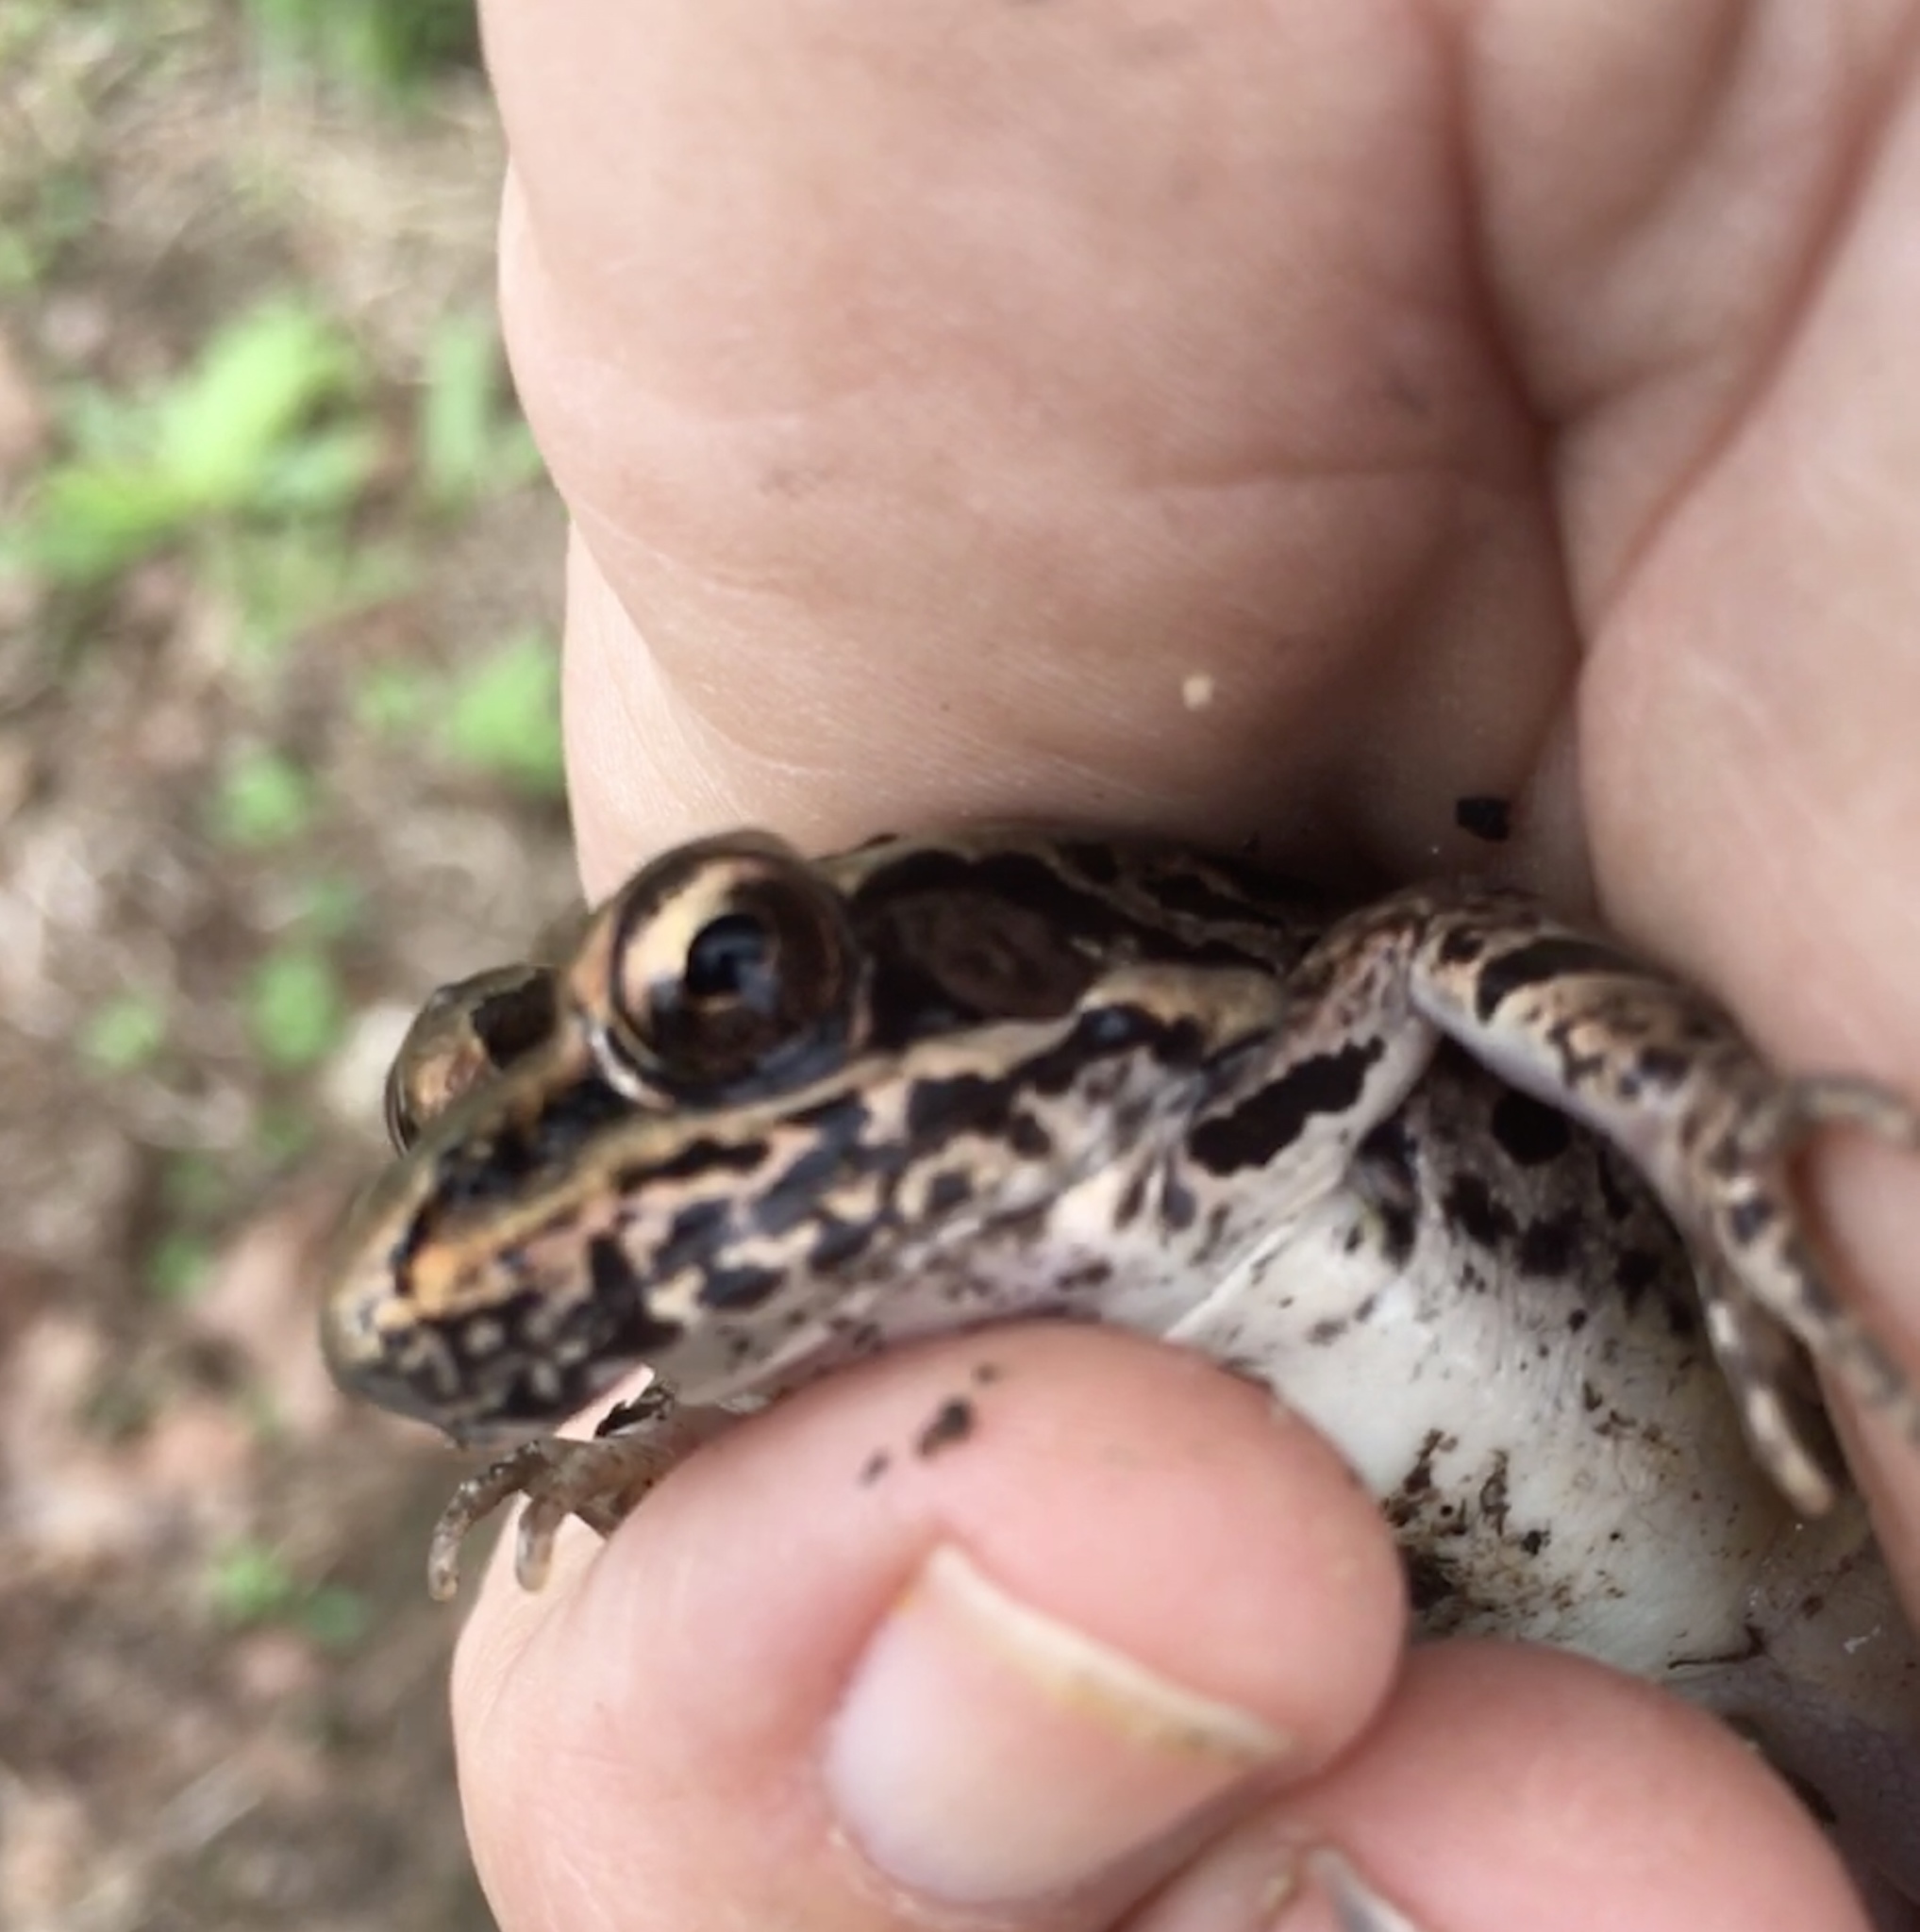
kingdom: Animalia
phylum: Chordata
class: Amphibia
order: Anura
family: Ranidae
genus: Lithobates
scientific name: Lithobates palustris
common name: Pickerel frog
